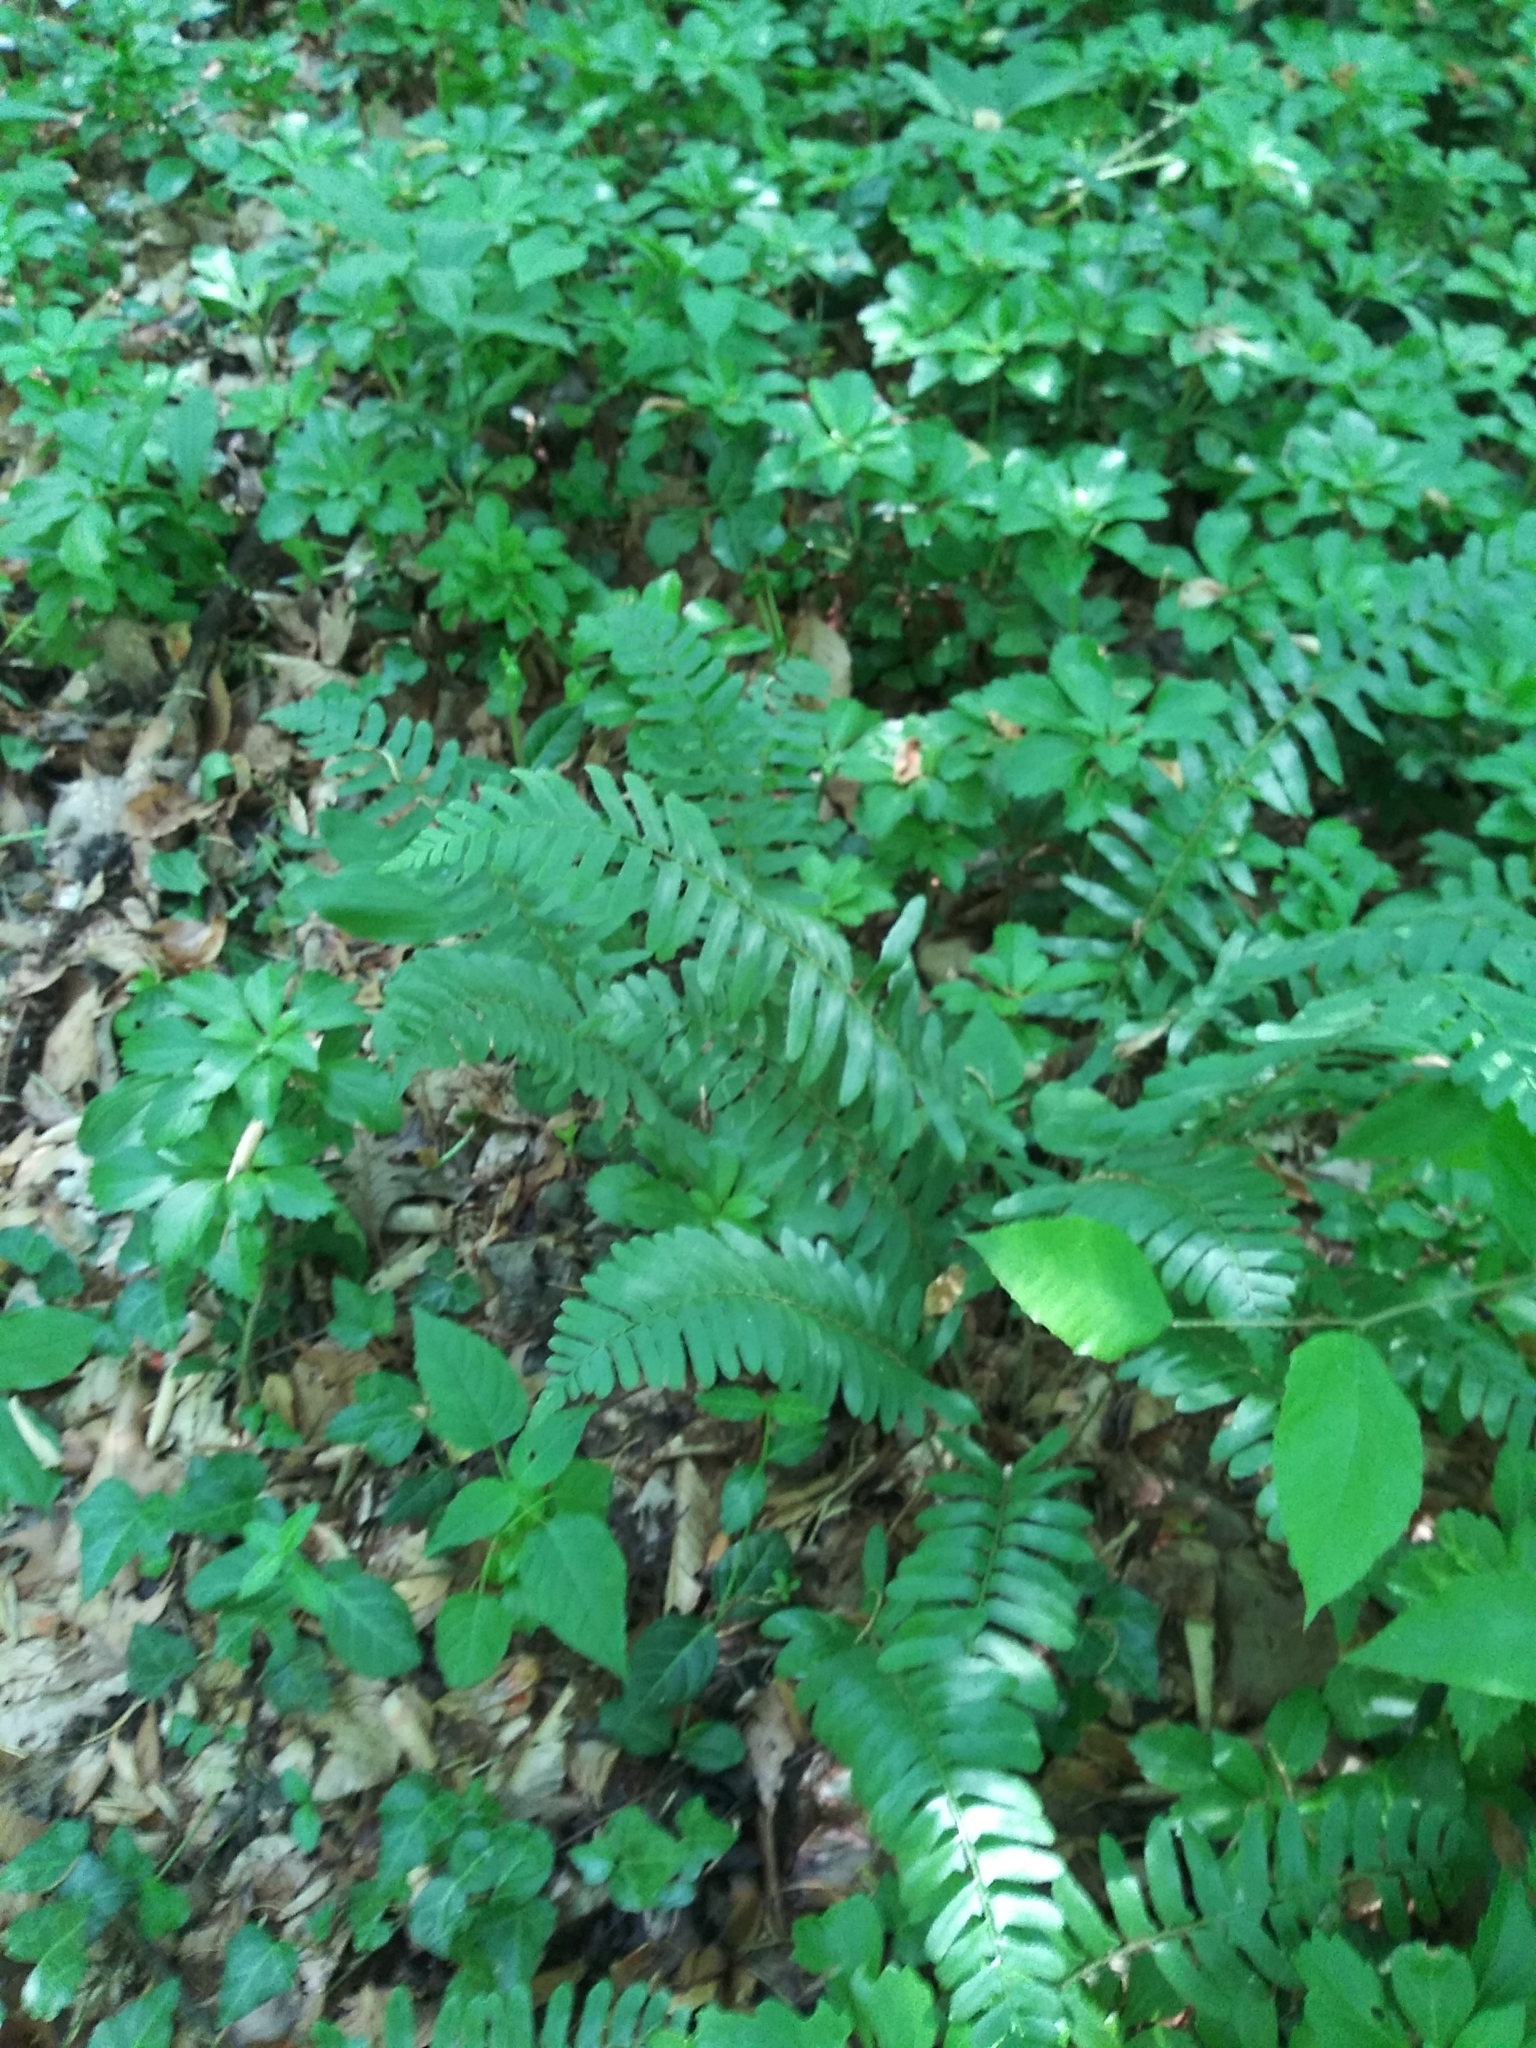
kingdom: Plantae
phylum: Tracheophyta
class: Polypodiopsida
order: Polypodiales
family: Dryopteridaceae
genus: Polystichum
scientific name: Polystichum acrostichoides
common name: Christmas fern
